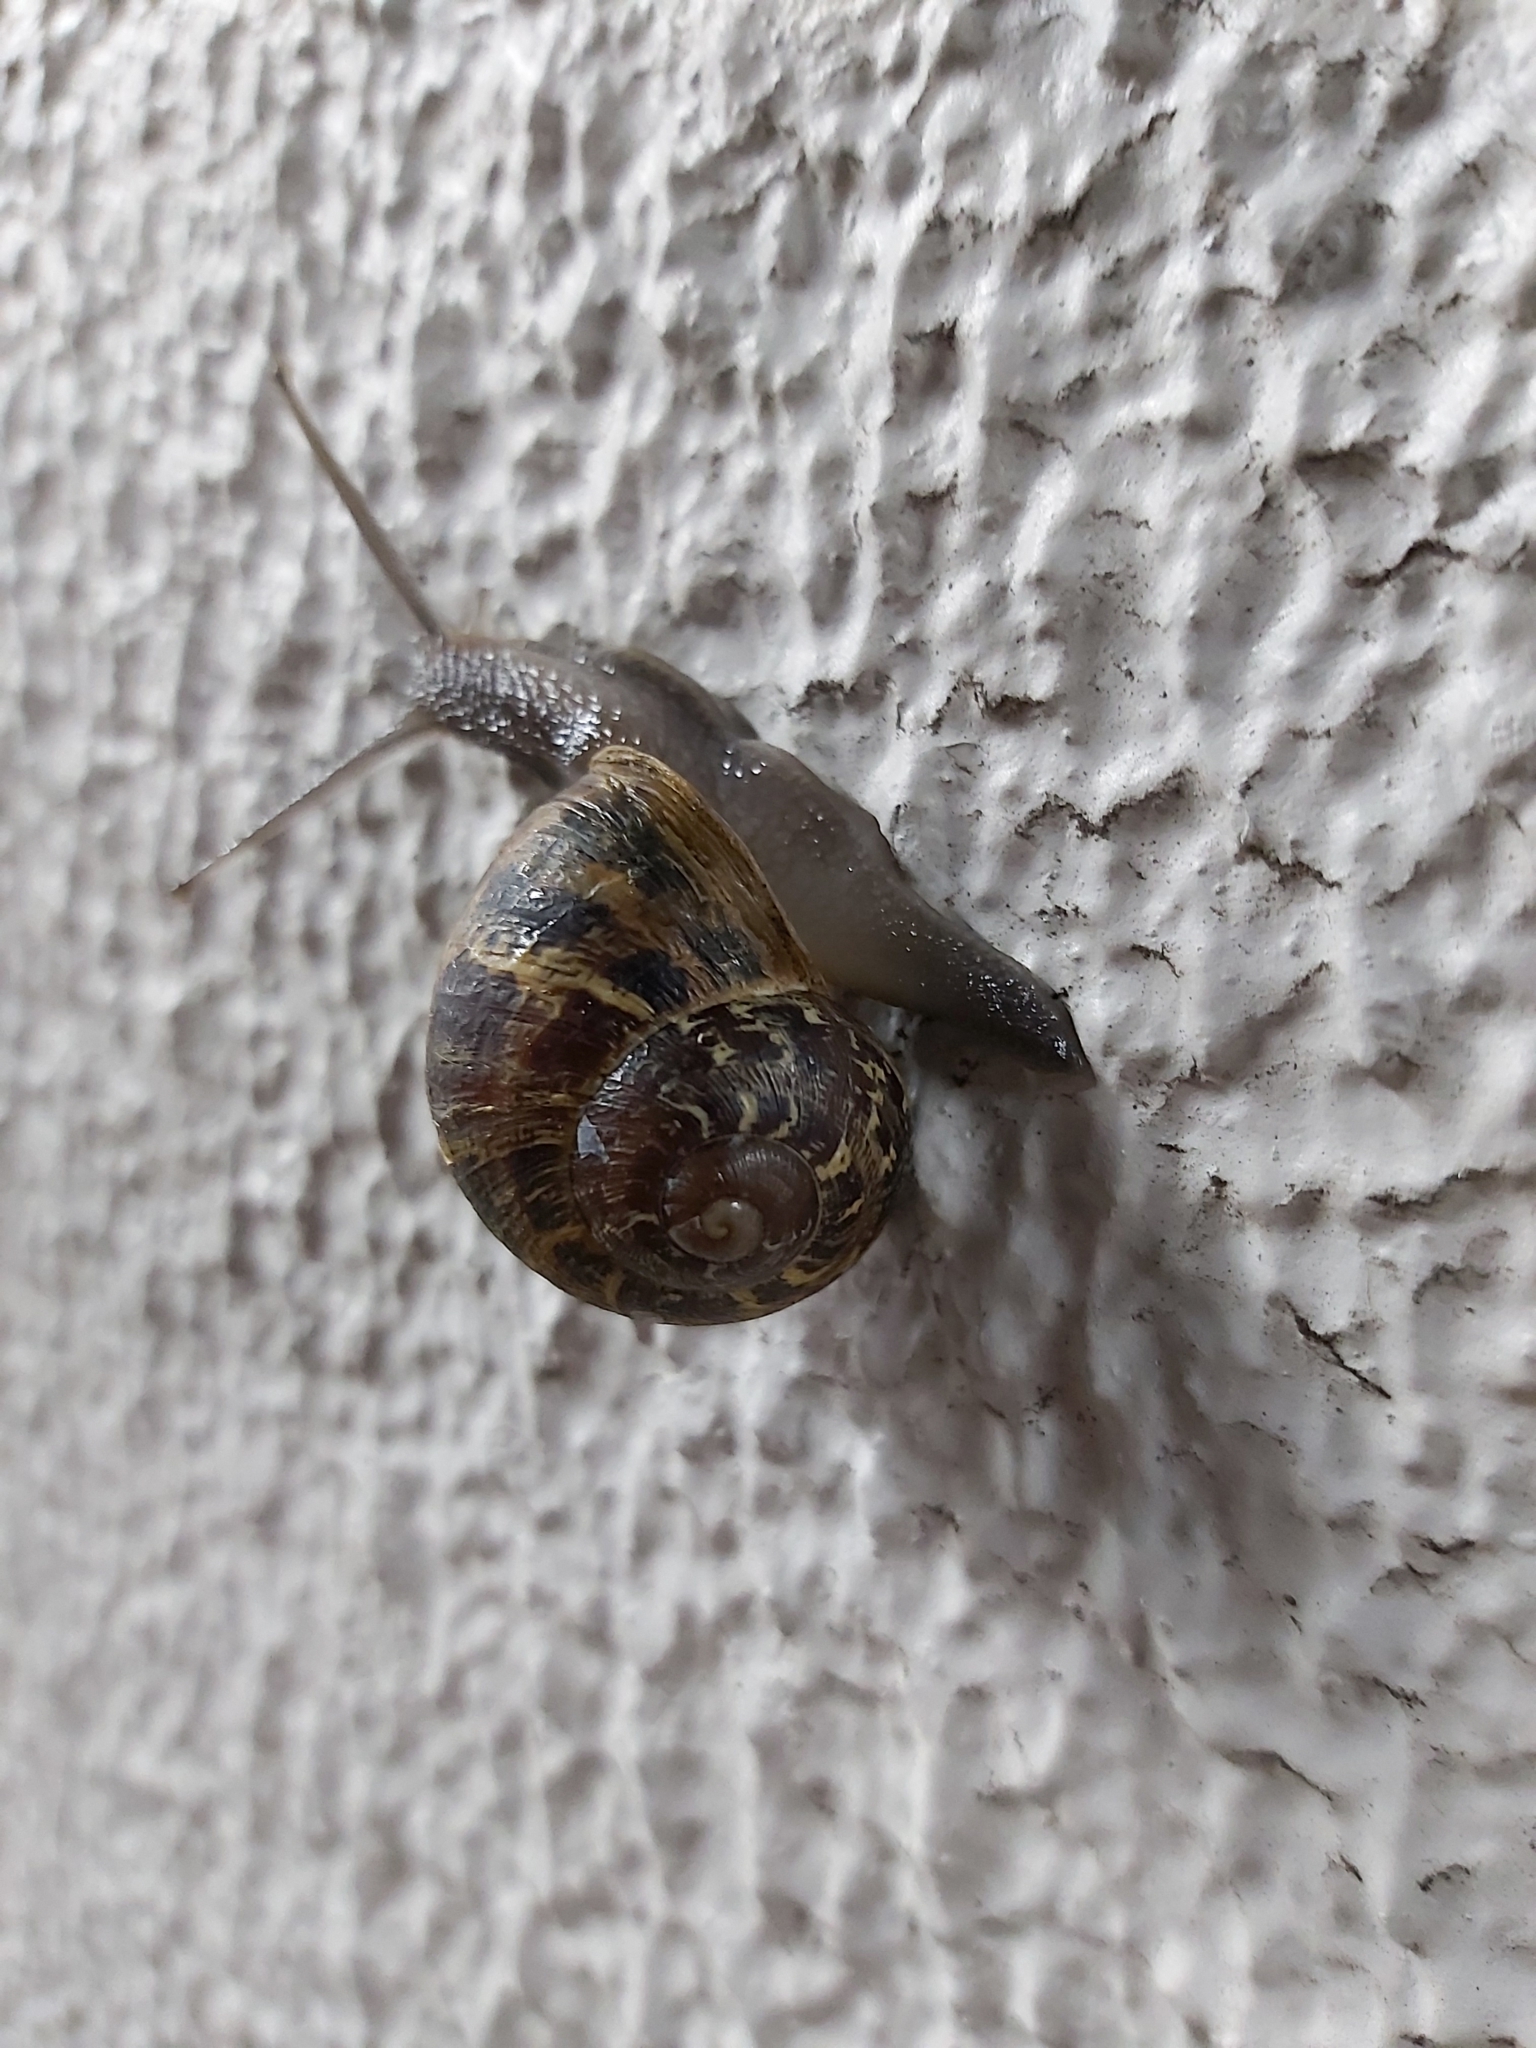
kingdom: Animalia
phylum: Mollusca
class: Gastropoda
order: Stylommatophora
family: Helicidae
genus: Cornu
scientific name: Cornu aspersum
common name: Brown garden snail
